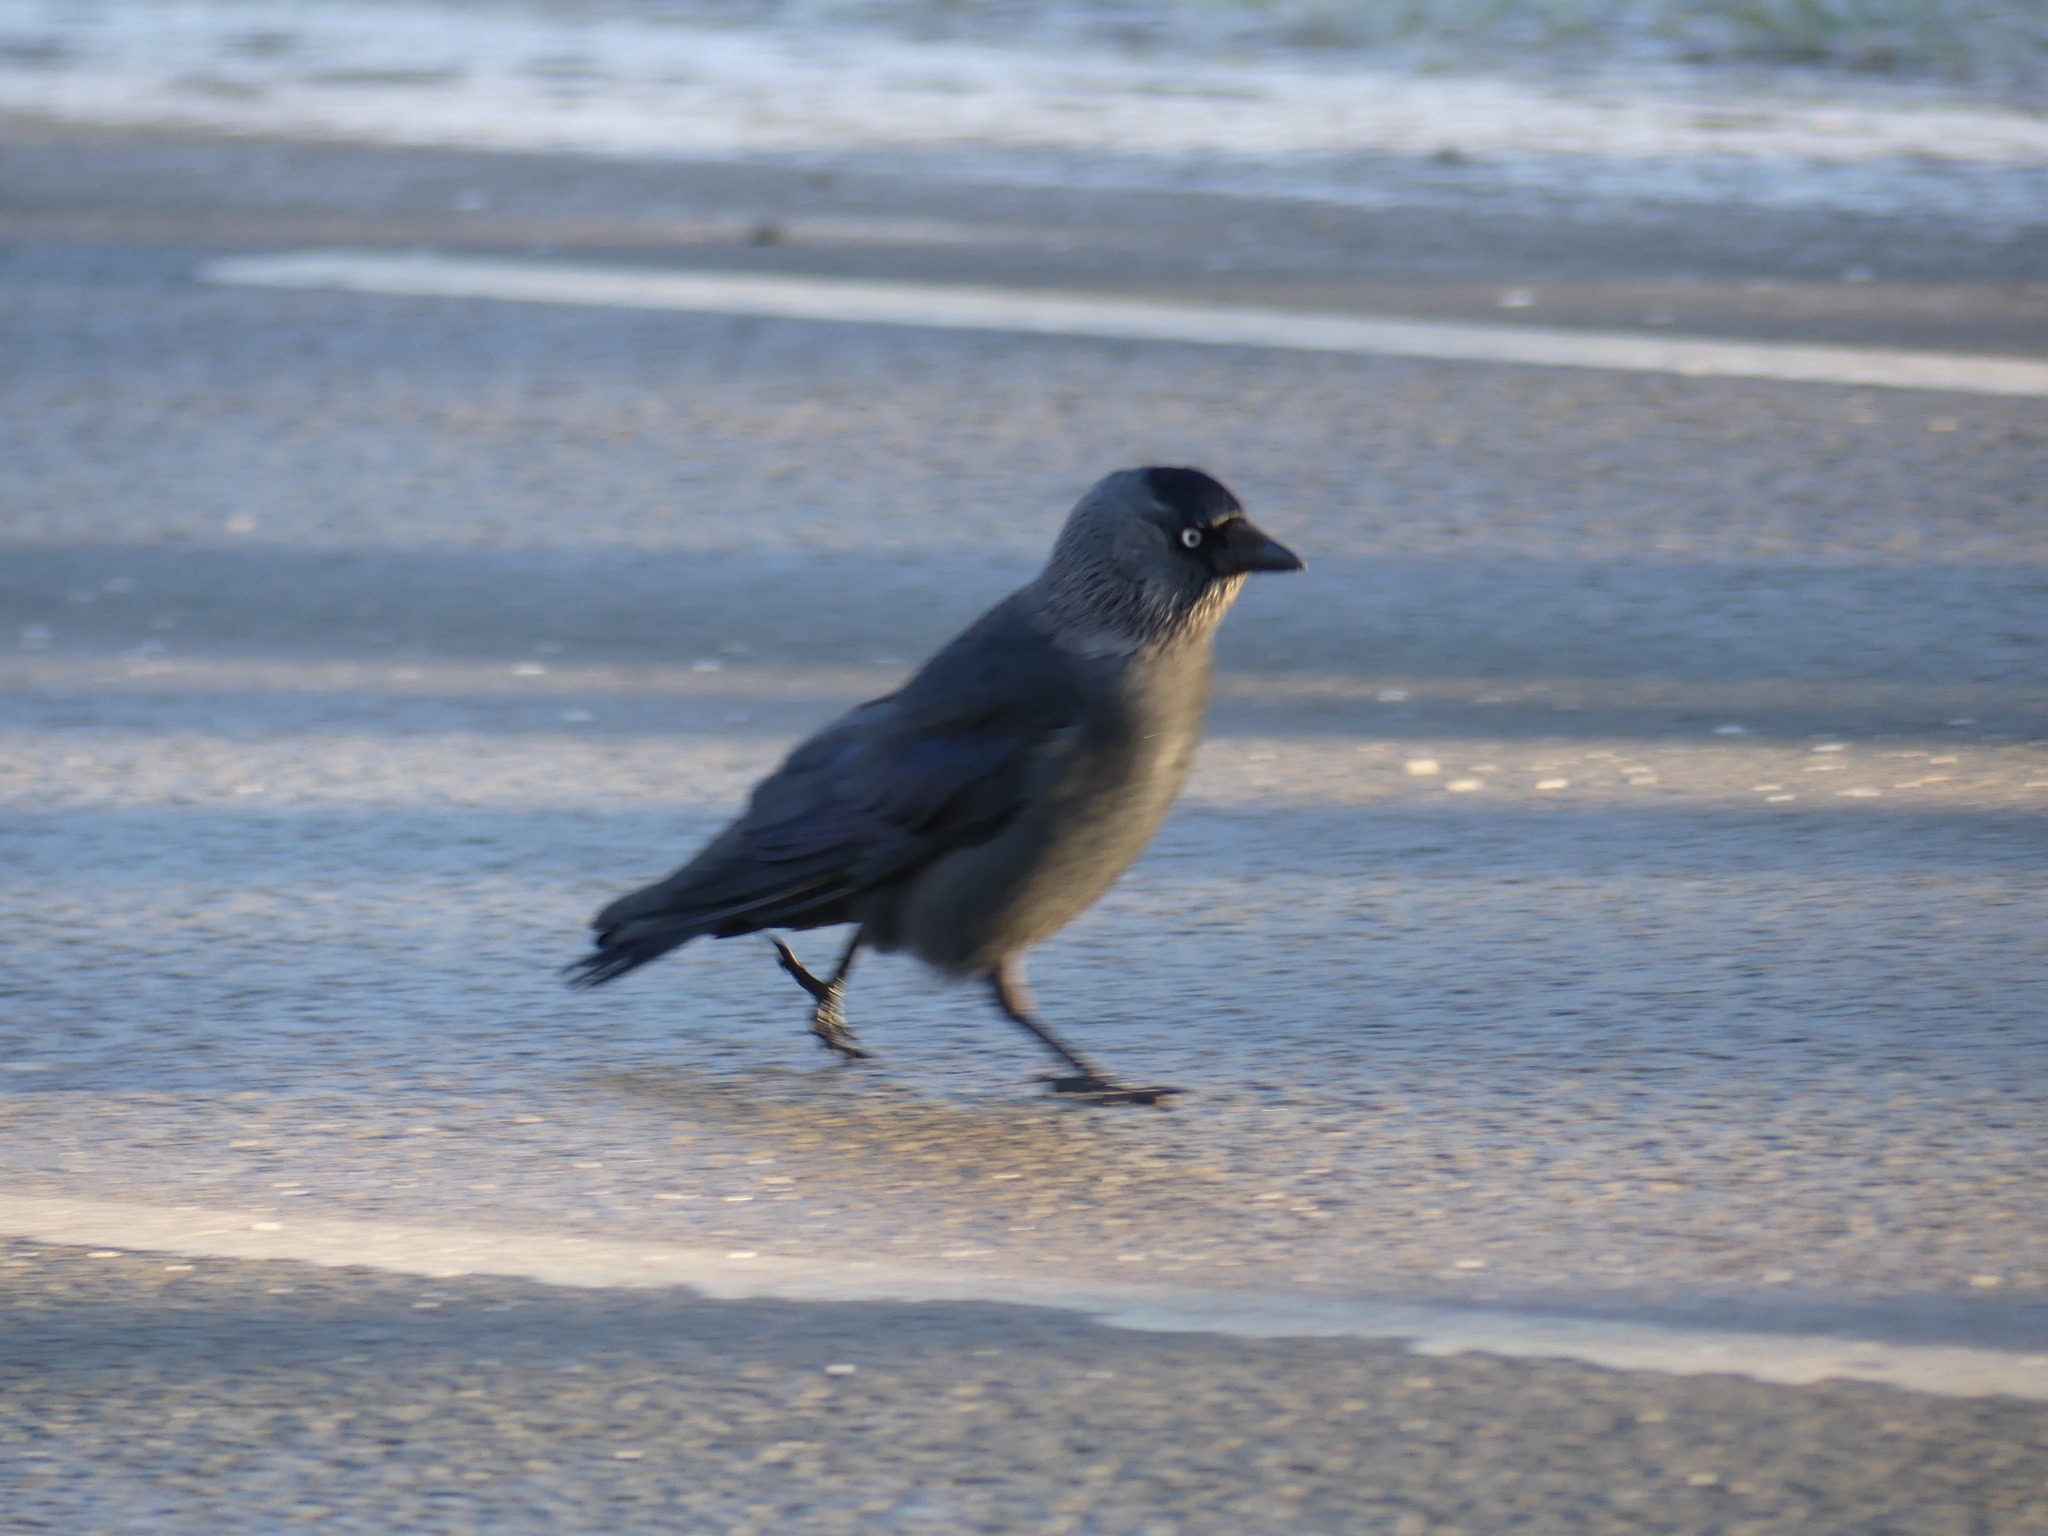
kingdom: Animalia
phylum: Chordata
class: Aves
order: Passeriformes
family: Corvidae
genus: Coloeus
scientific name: Coloeus monedula
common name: Western jackdaw
